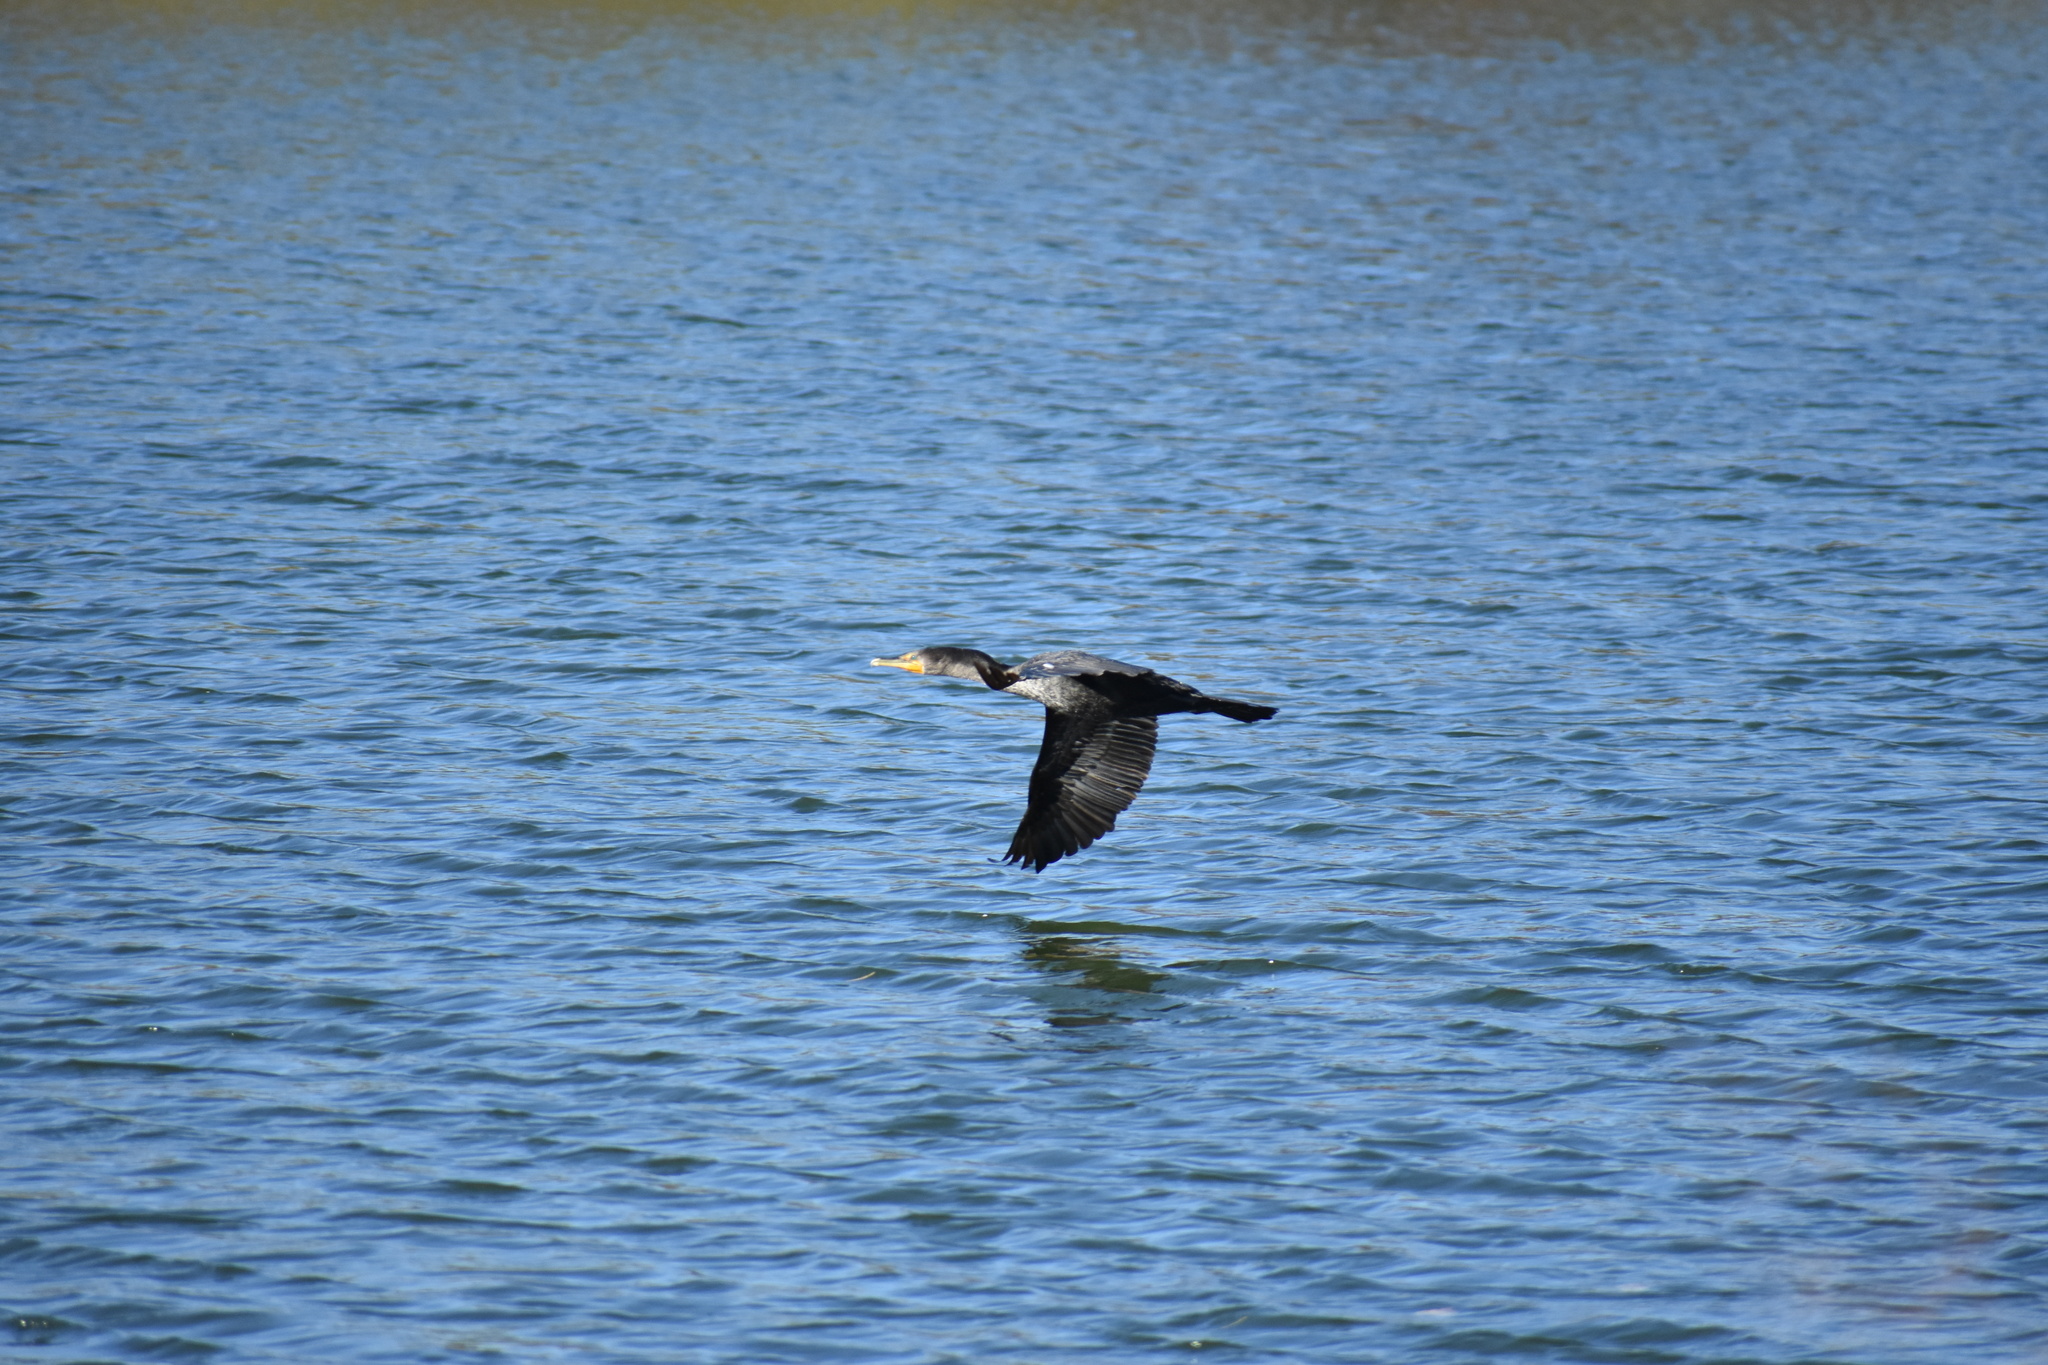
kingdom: Animalia
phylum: Chordata
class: Aves
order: Suliformes
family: Phalacrocoracidae
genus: Phalacrocorax
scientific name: Phalacrocorax auritus
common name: Double-crested cormorant
